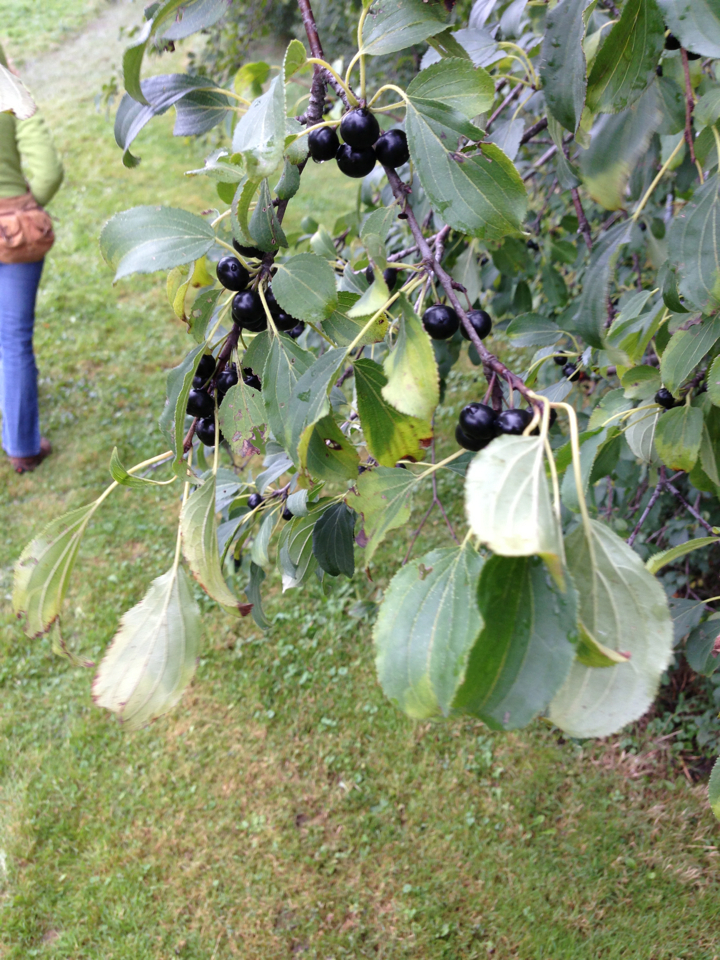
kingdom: Plantae
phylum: Tracheophyta
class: Magnoliopsida
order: Rosales
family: Rhamnaceae
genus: Rhamnus
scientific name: Rhamnus cathartica
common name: Common buckthorn
